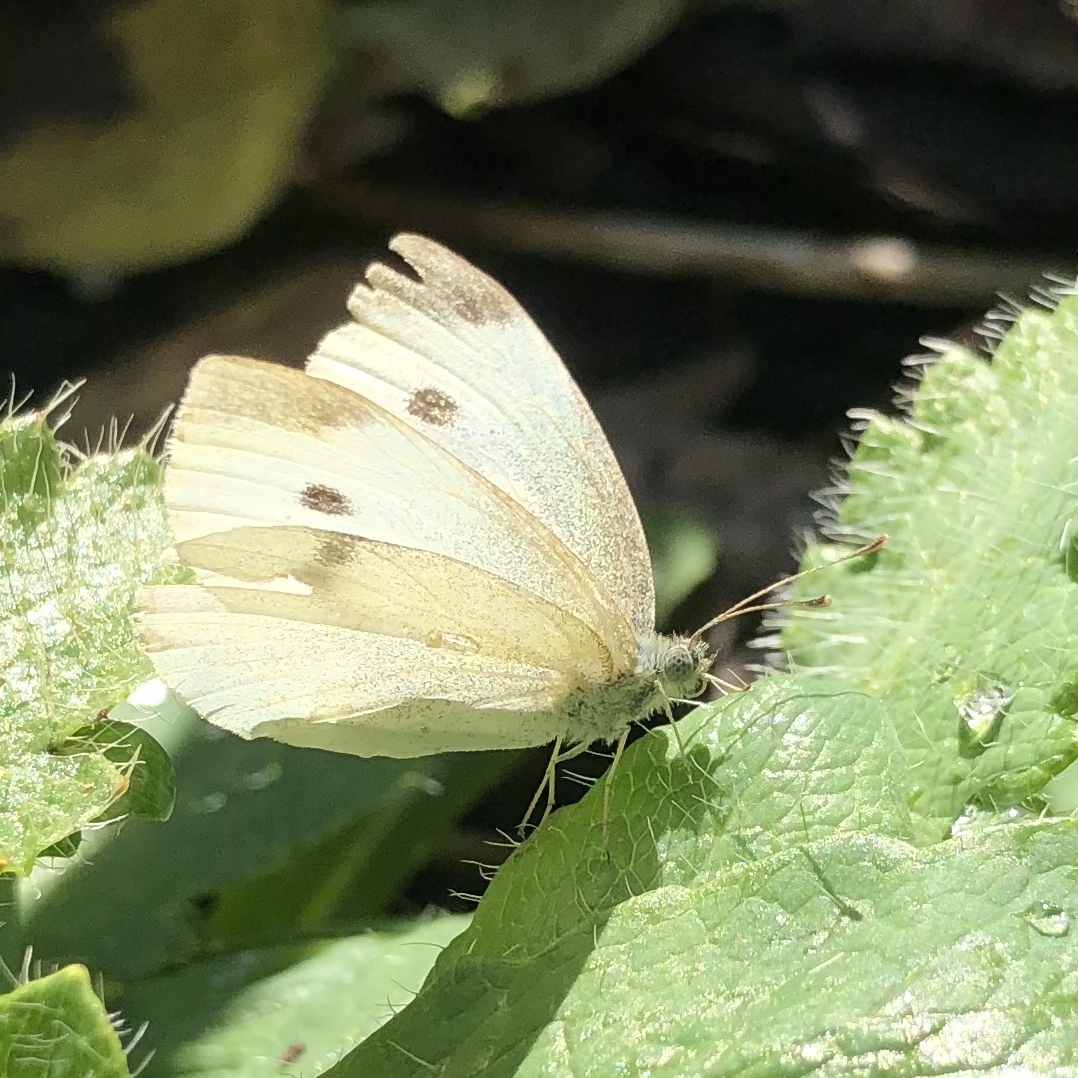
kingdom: Animalia
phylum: Arthropoda
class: Insecta
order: Lepidoptera
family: Pieridae
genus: Pieris
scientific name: Pieris rapae
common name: Small white
